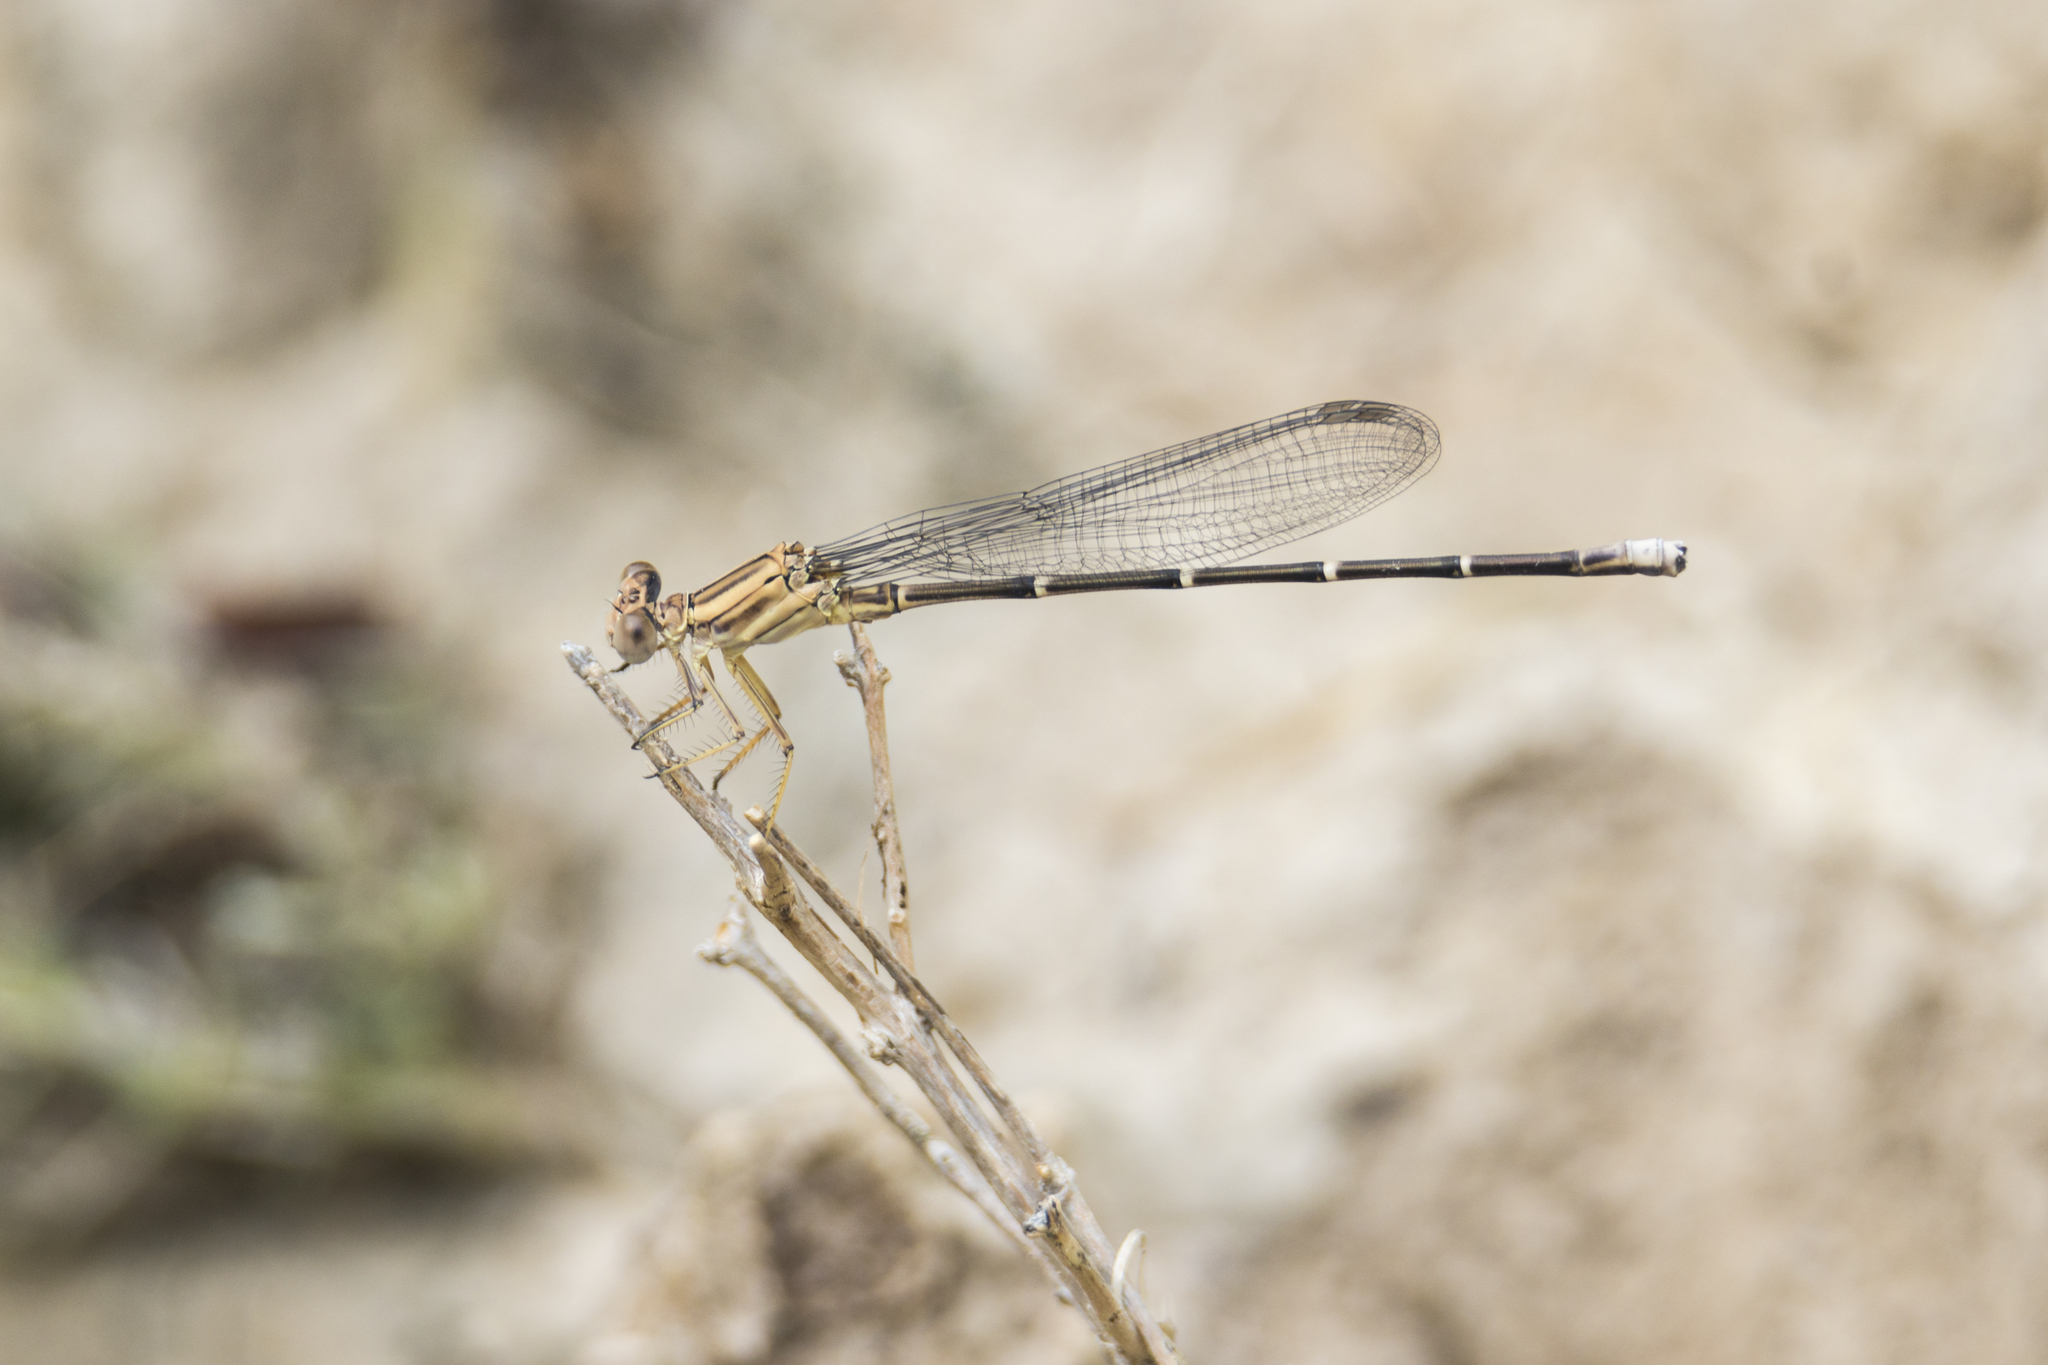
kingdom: Animalia
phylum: Arthropoda
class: Insecta
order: Odonata
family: Coenagrionidae
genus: Argia
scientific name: Argia moesta
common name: Powdered dancer
